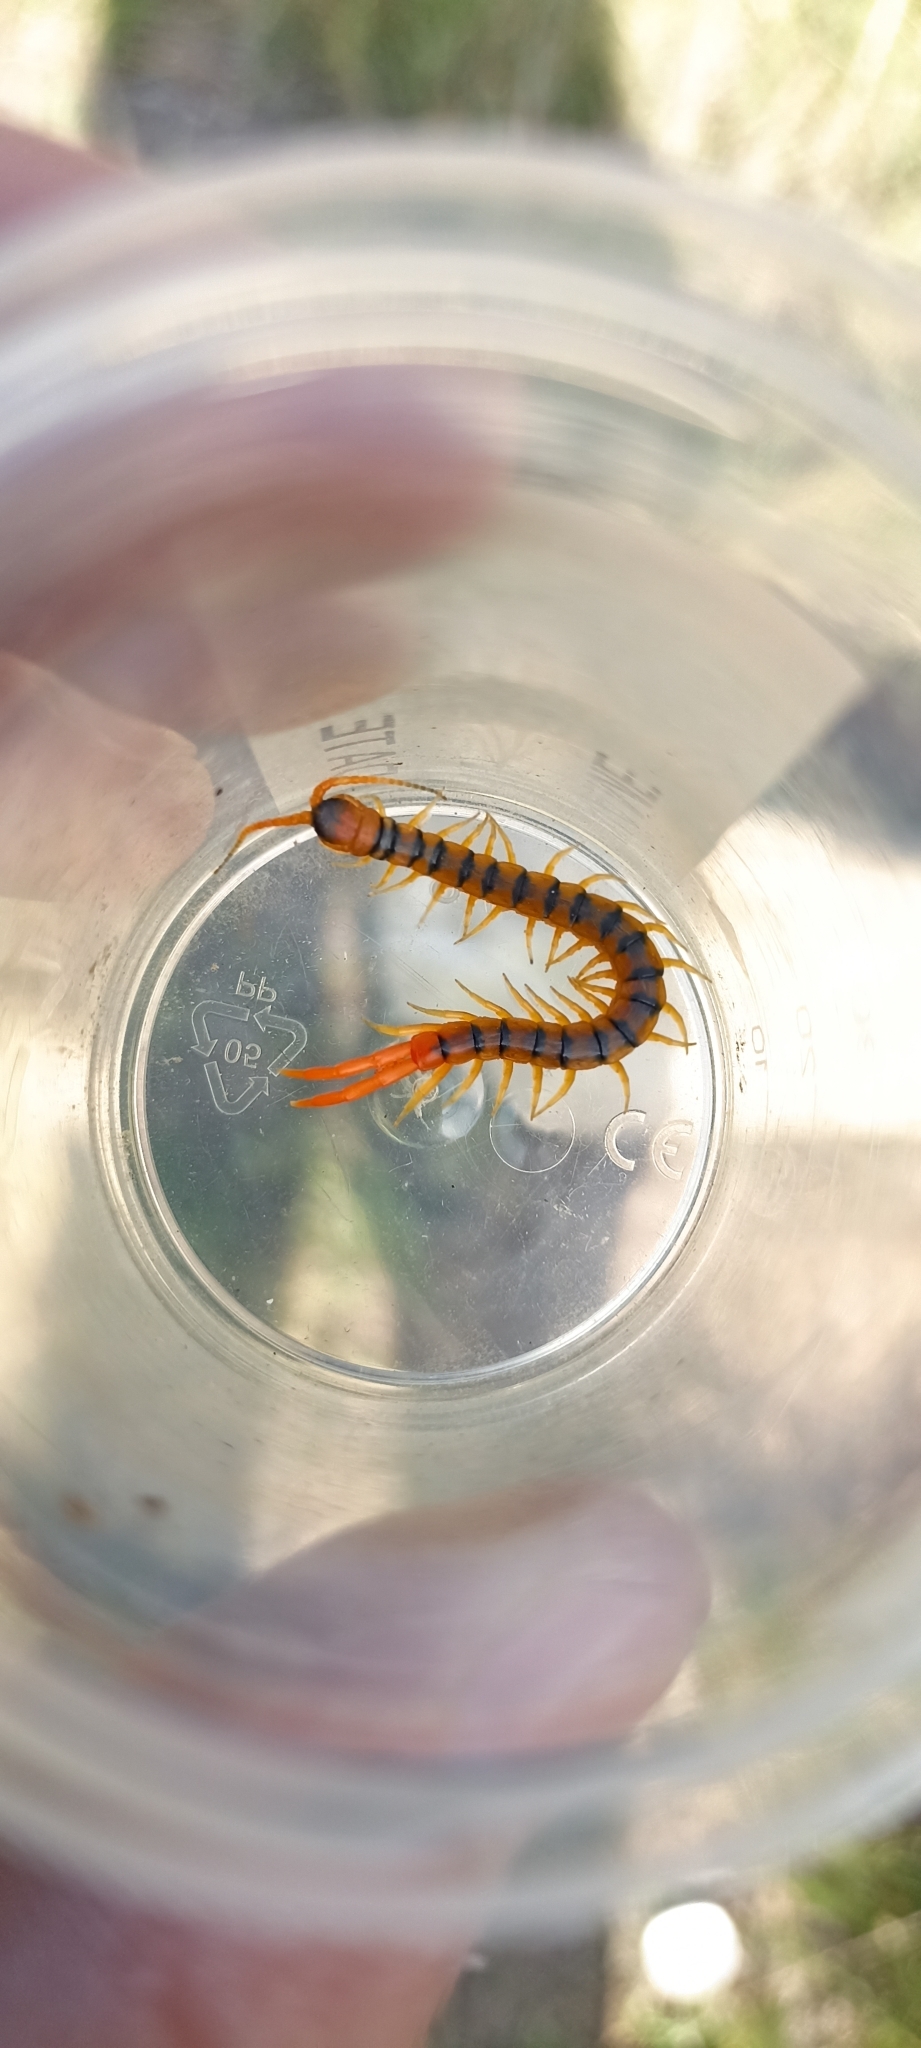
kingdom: Animalia
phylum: Arthropoda
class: Chilopoda
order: Scolopendromorpha
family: Scolopendridae
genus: Scolopendra
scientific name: Scolopendra cingulata
